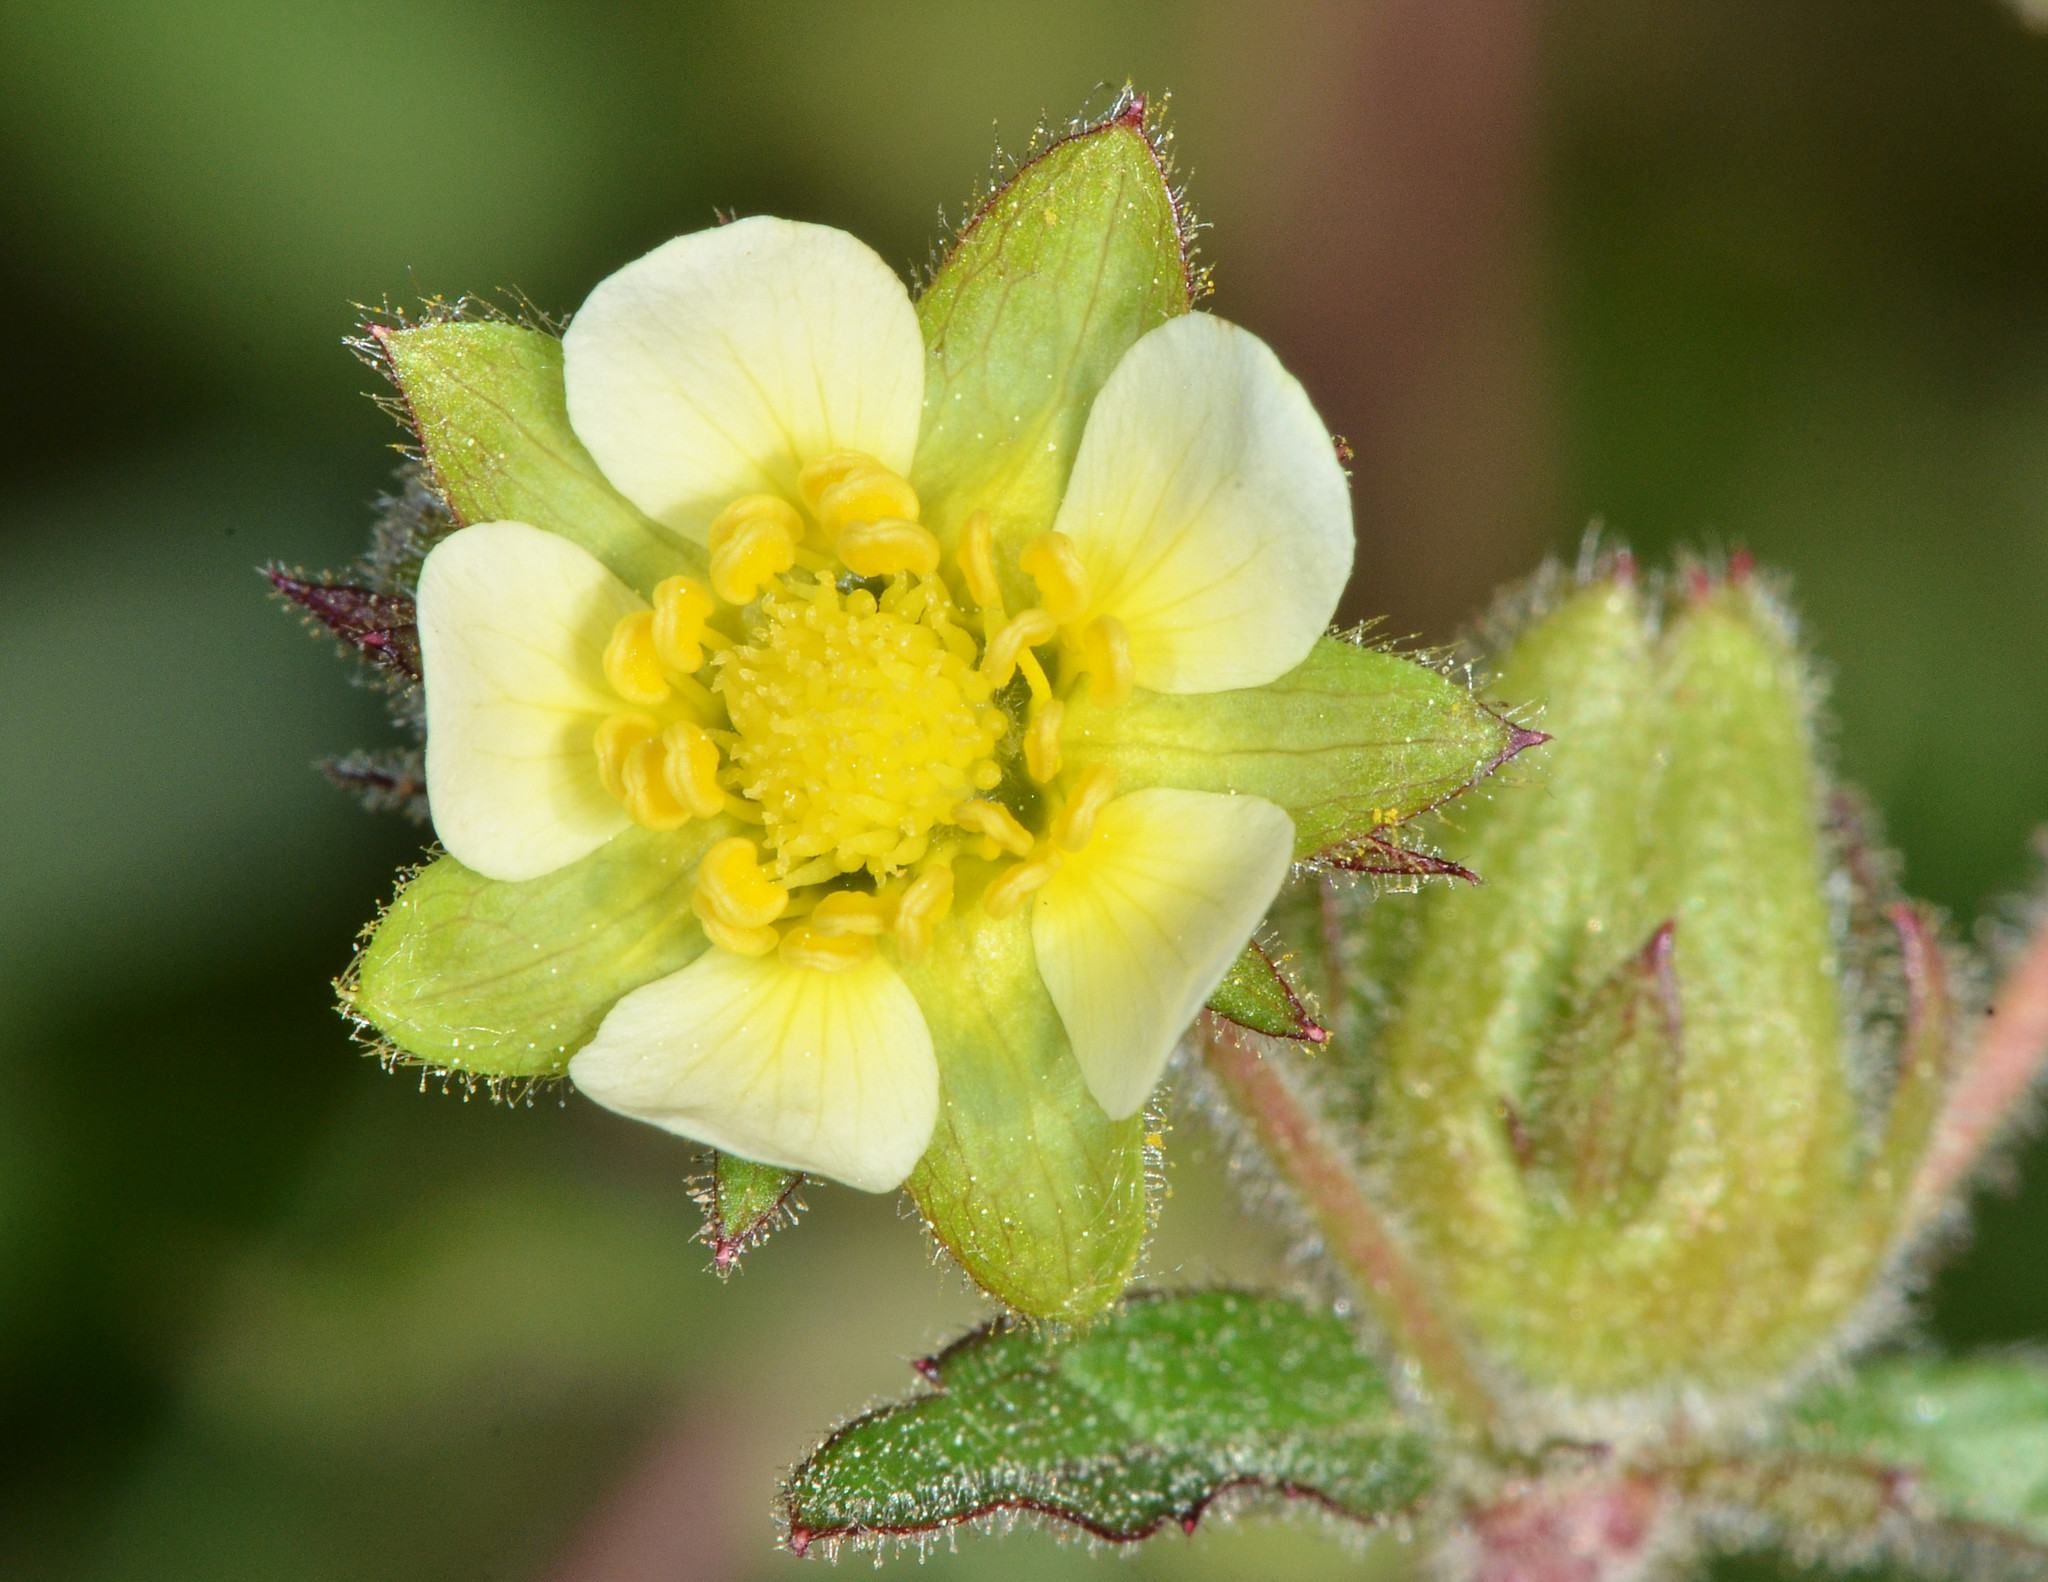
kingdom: Plantae
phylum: Tracheophyta
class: Magnoliopsida
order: Rosales
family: Rosaceae
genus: Drymocallis
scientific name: Drymocallis glandulosa
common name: Sticky cinquefoil
